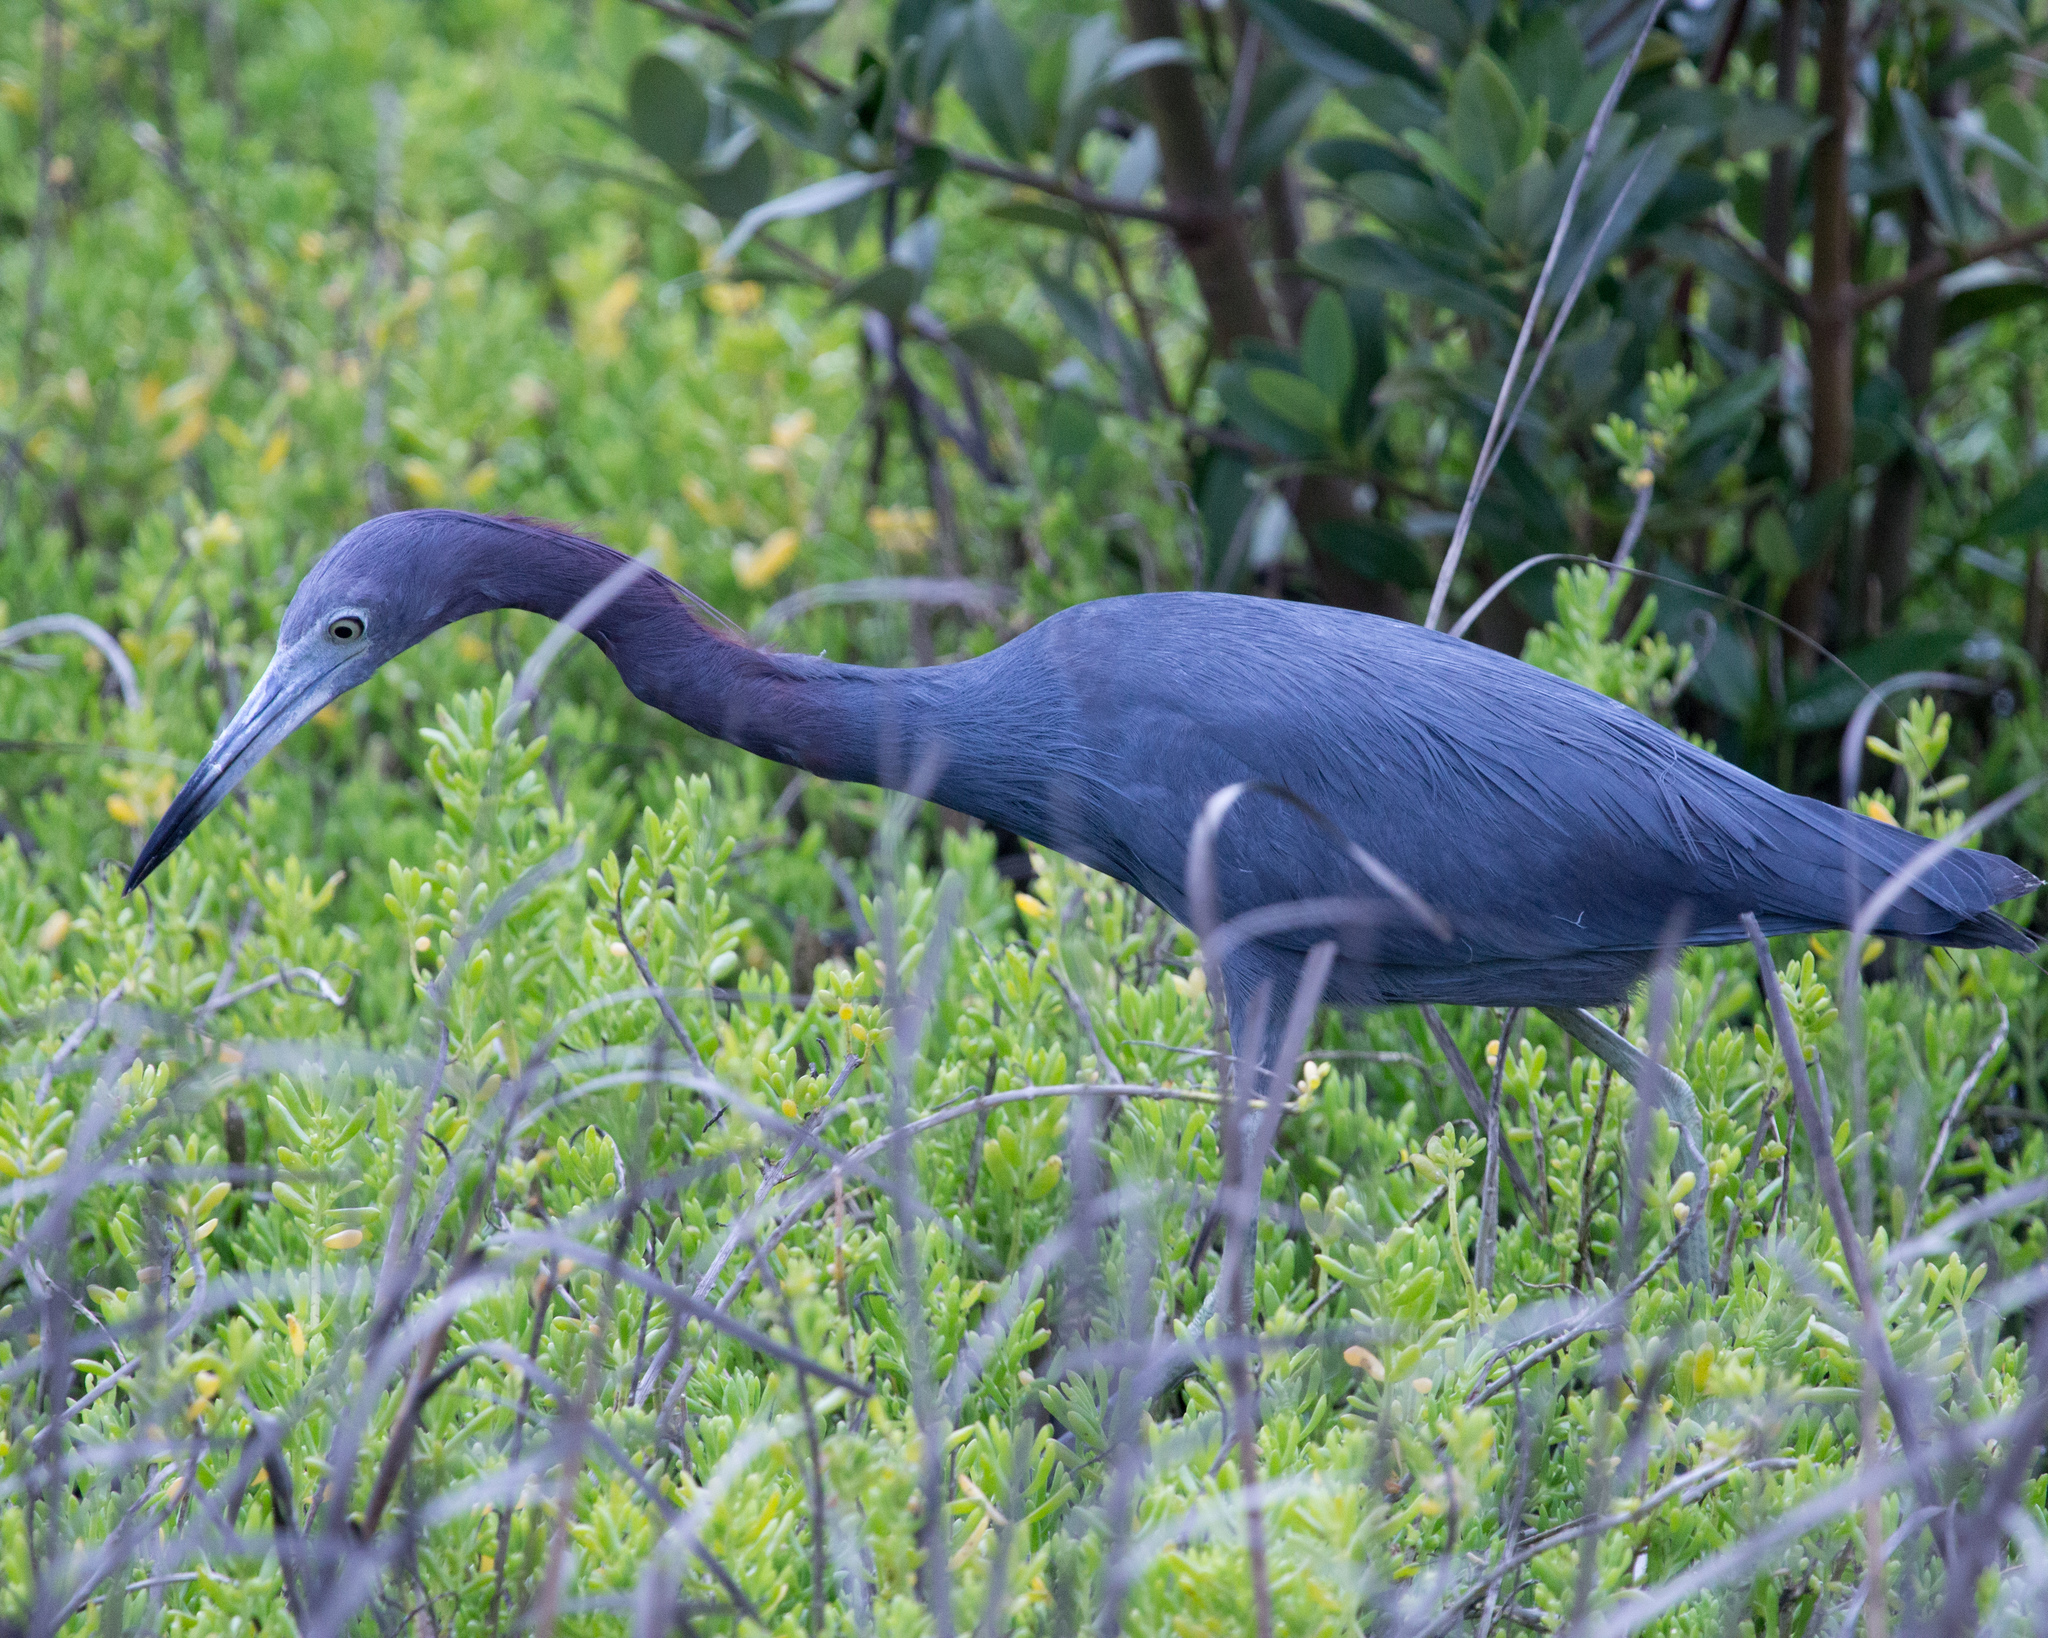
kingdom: Animalia
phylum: Chordata
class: Aves
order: Pelecaniformes
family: Ardeidae
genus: Egretta
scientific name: Egretta caerulea
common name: Little blue heron
